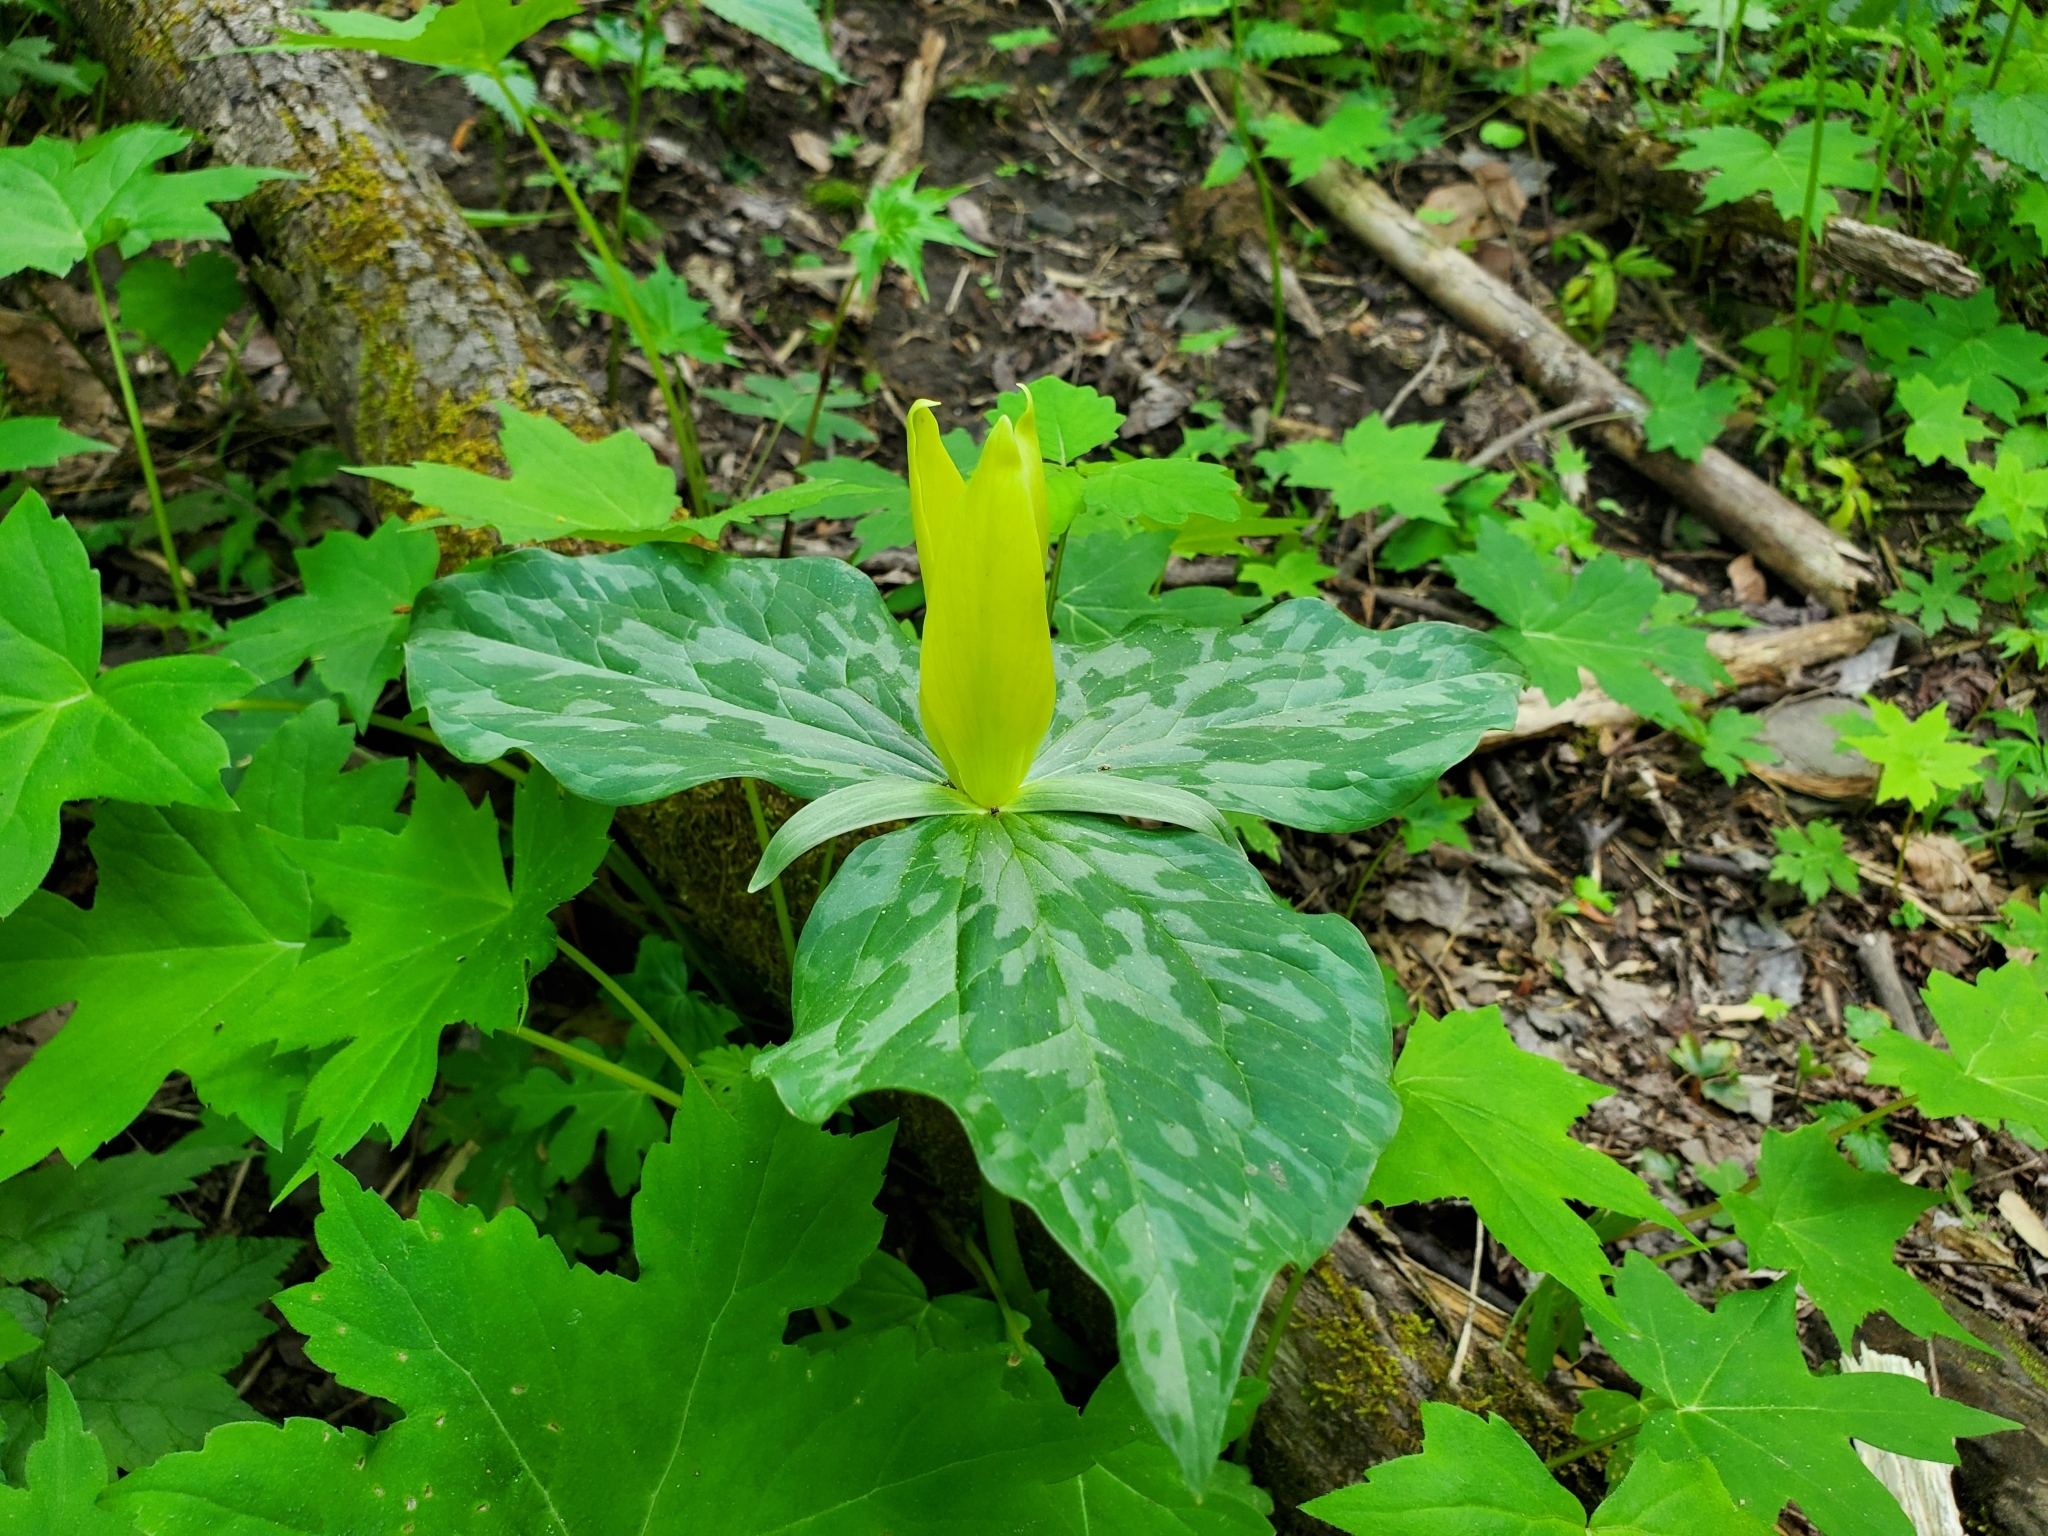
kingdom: Plantae
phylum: Tracheophyta
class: Liliopsida
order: Liliales
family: Melanthiaceae
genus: Trillium
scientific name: Trillium luteum
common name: Wax trillium
